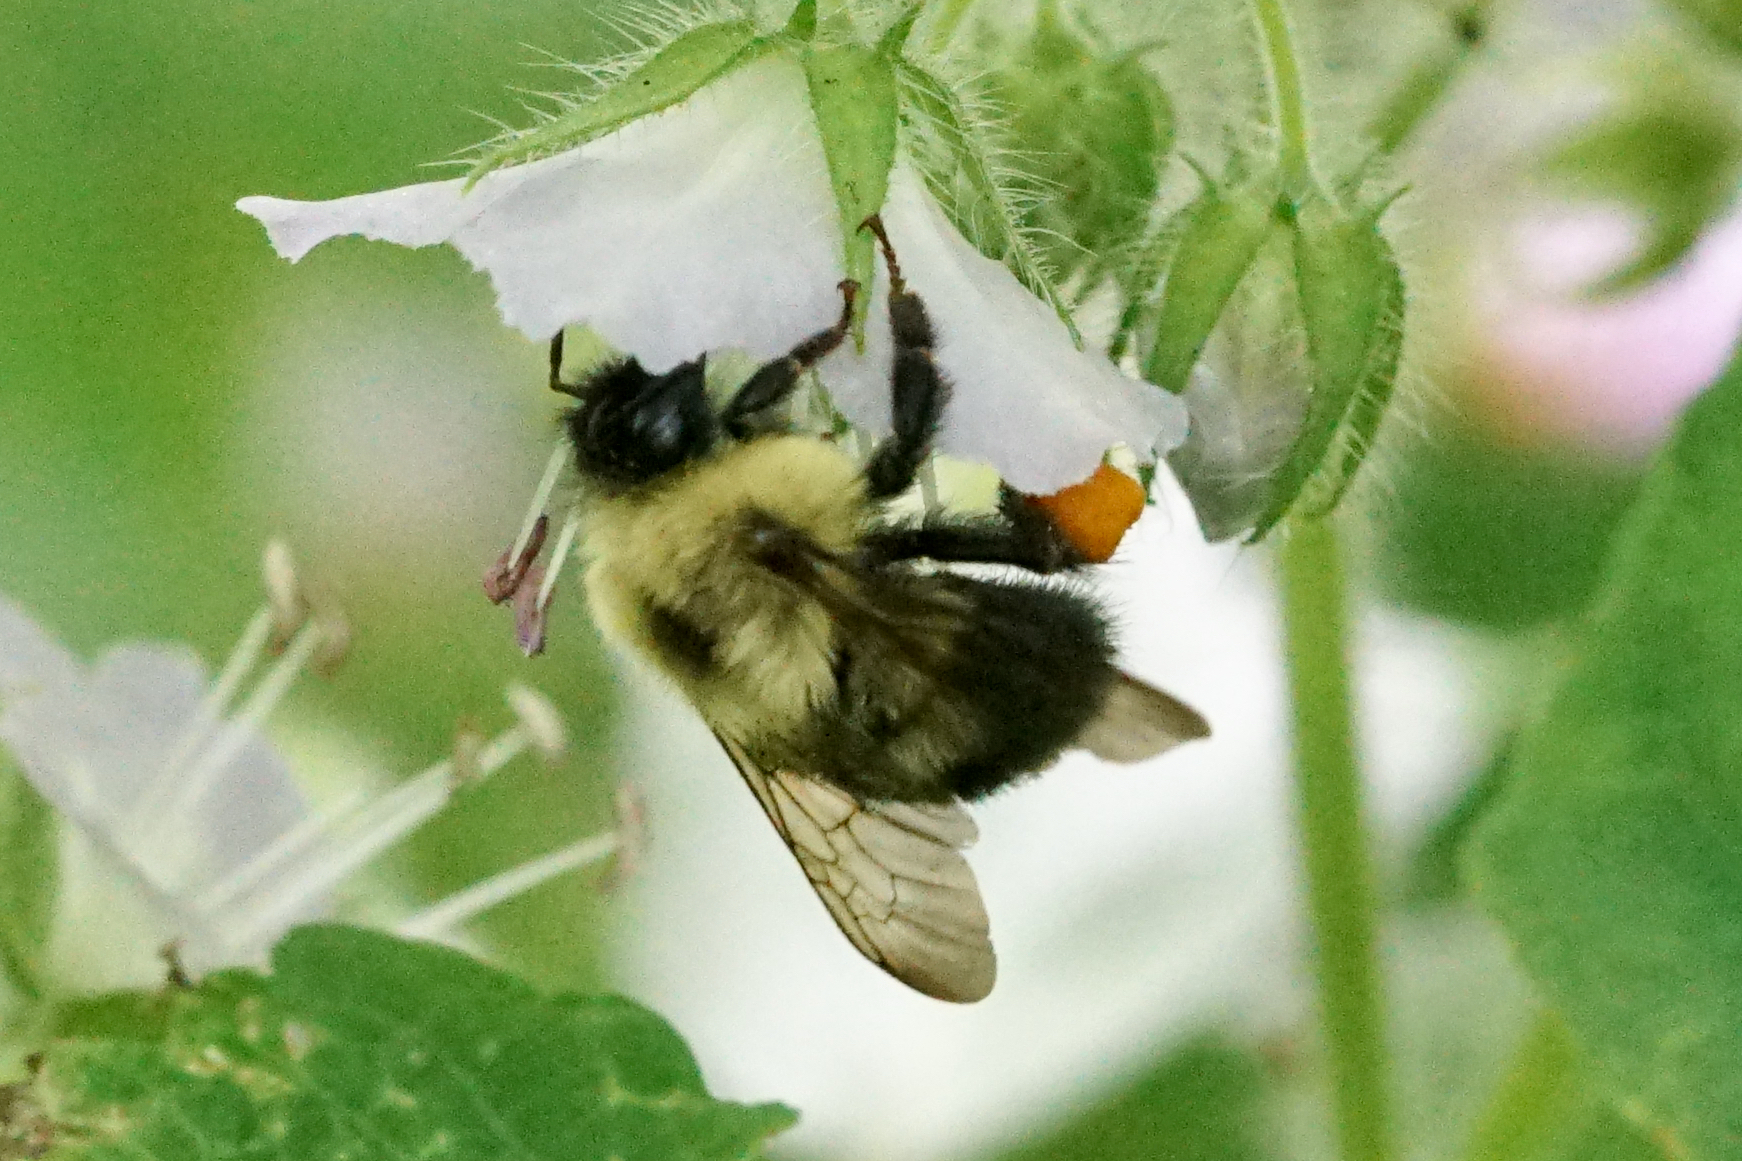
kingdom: Animalia
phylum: Arthropoda
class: Insecta
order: Hymenoptera
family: Apidae
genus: Bombus
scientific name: Bombus bimaculatus
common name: Two-spotted bumble bee
